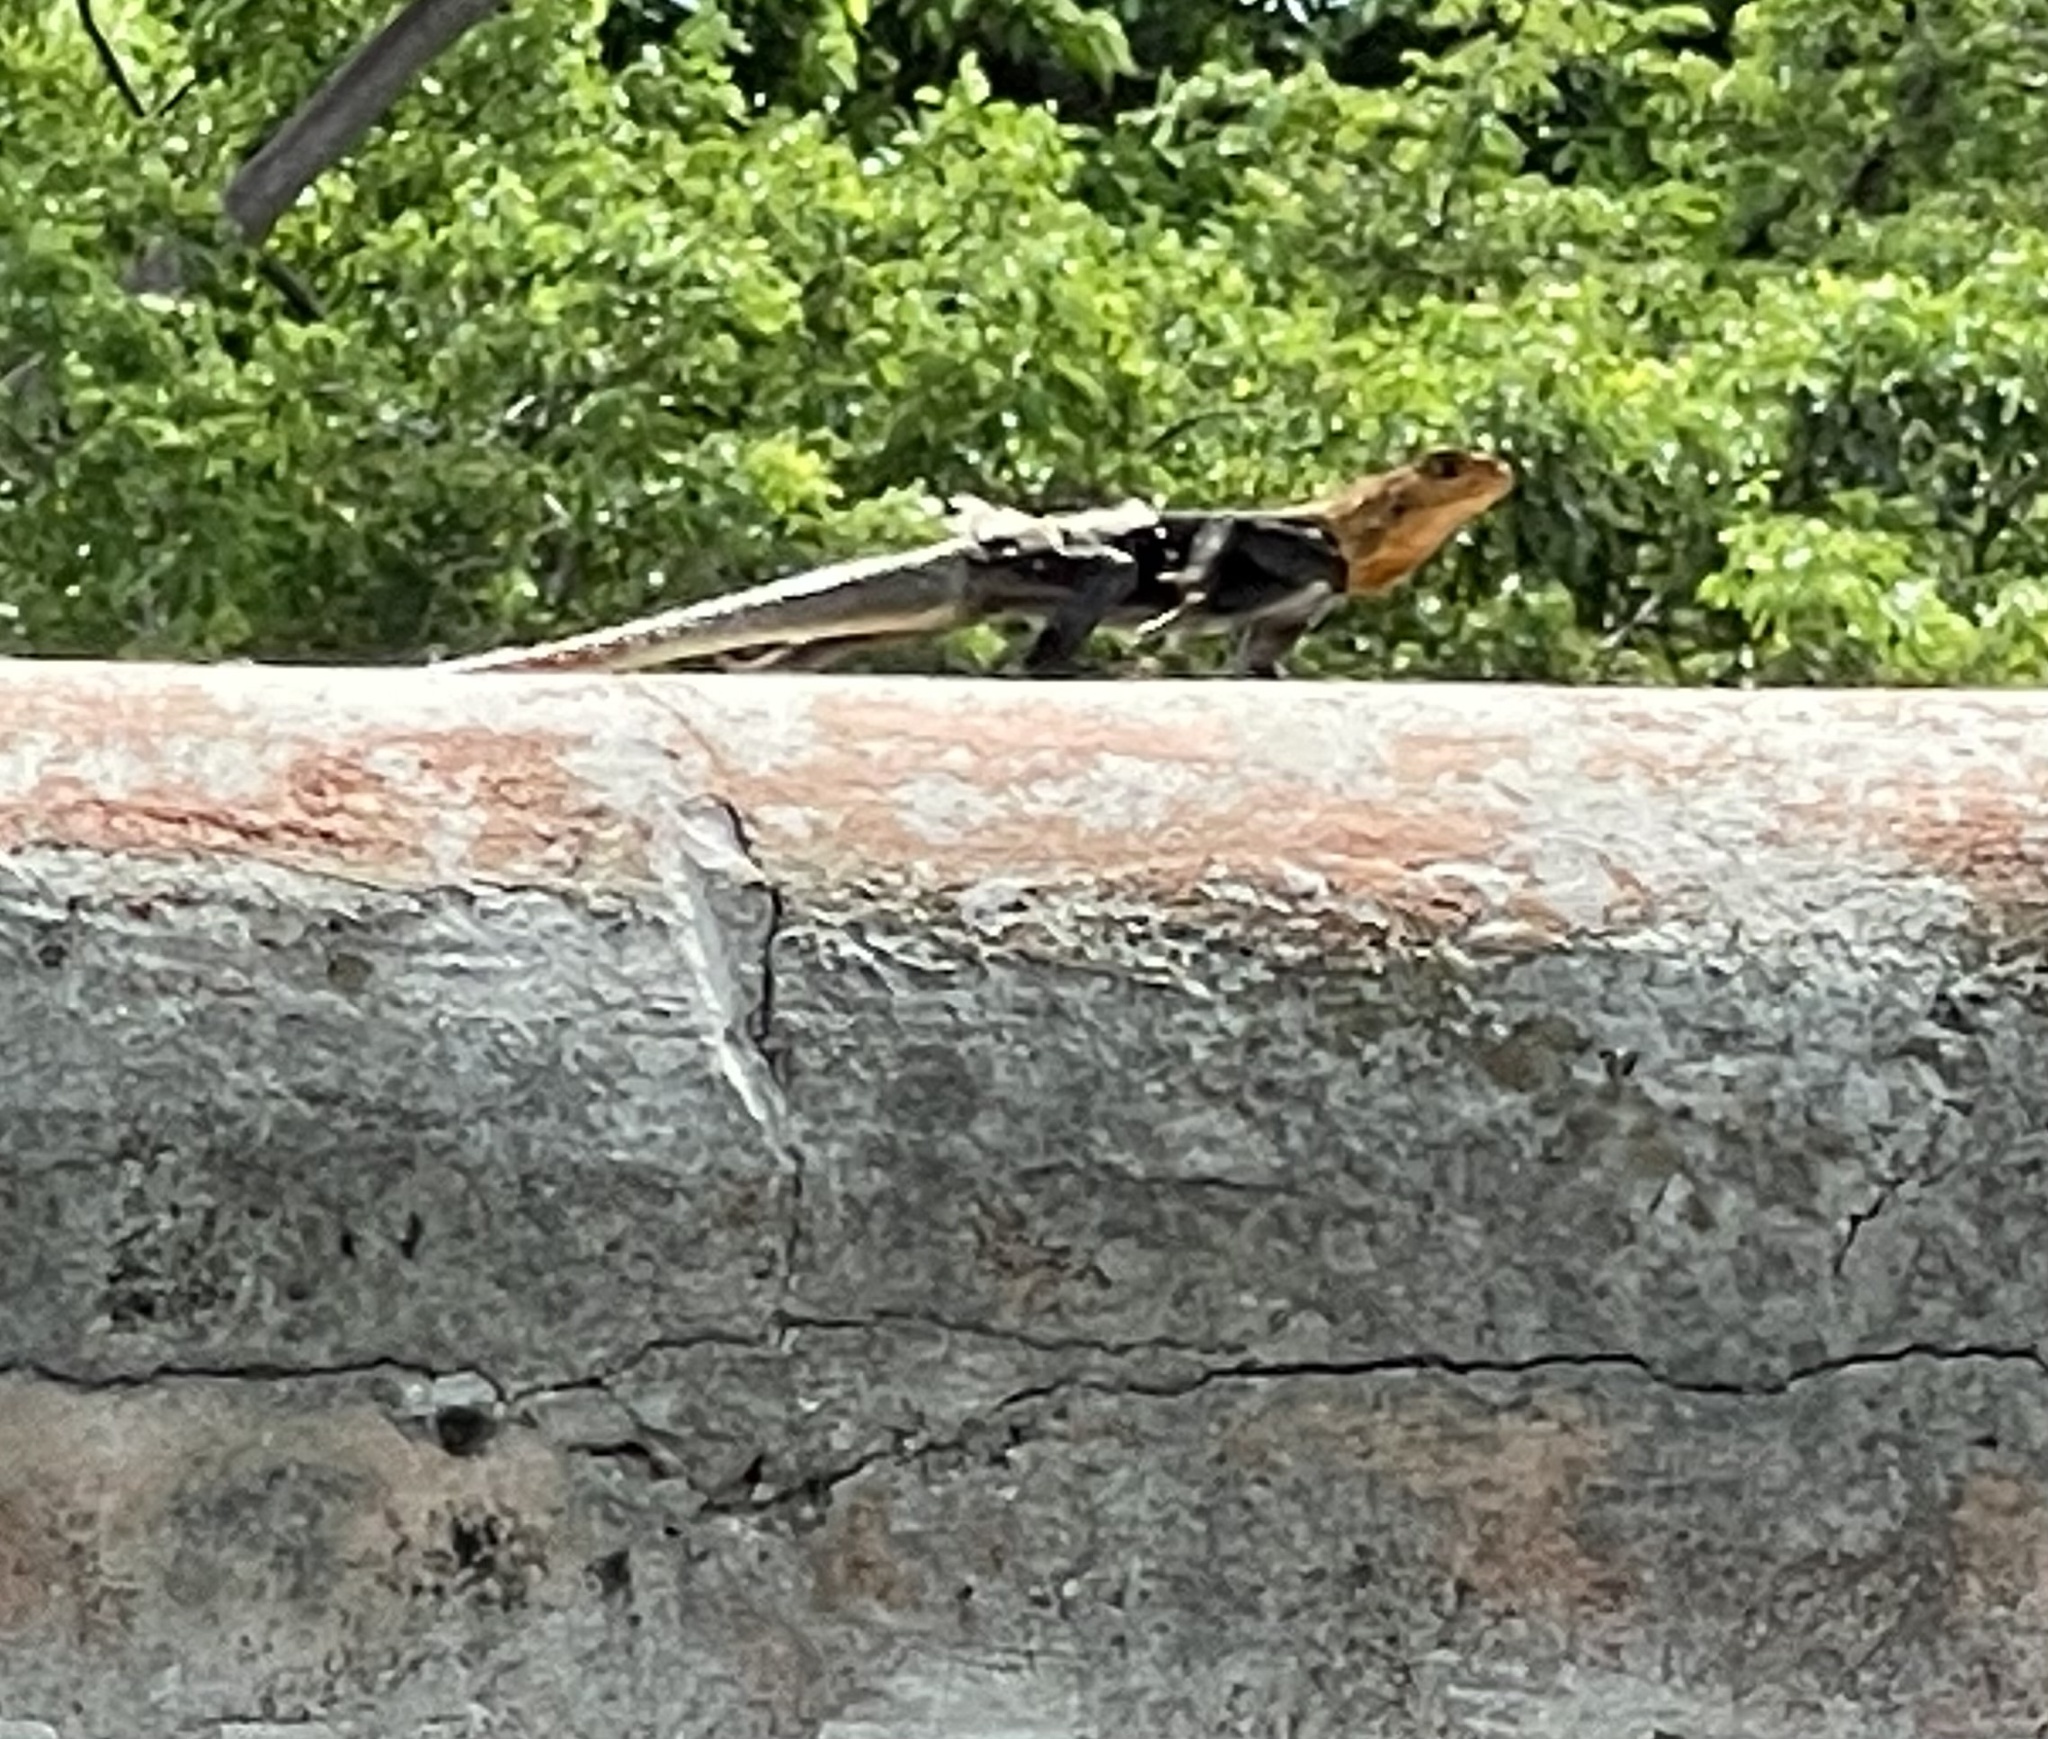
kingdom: Animalia
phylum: Chordata
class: Squamata
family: Agamidae
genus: Agama
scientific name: Agama picticauda
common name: Red-headed agama
